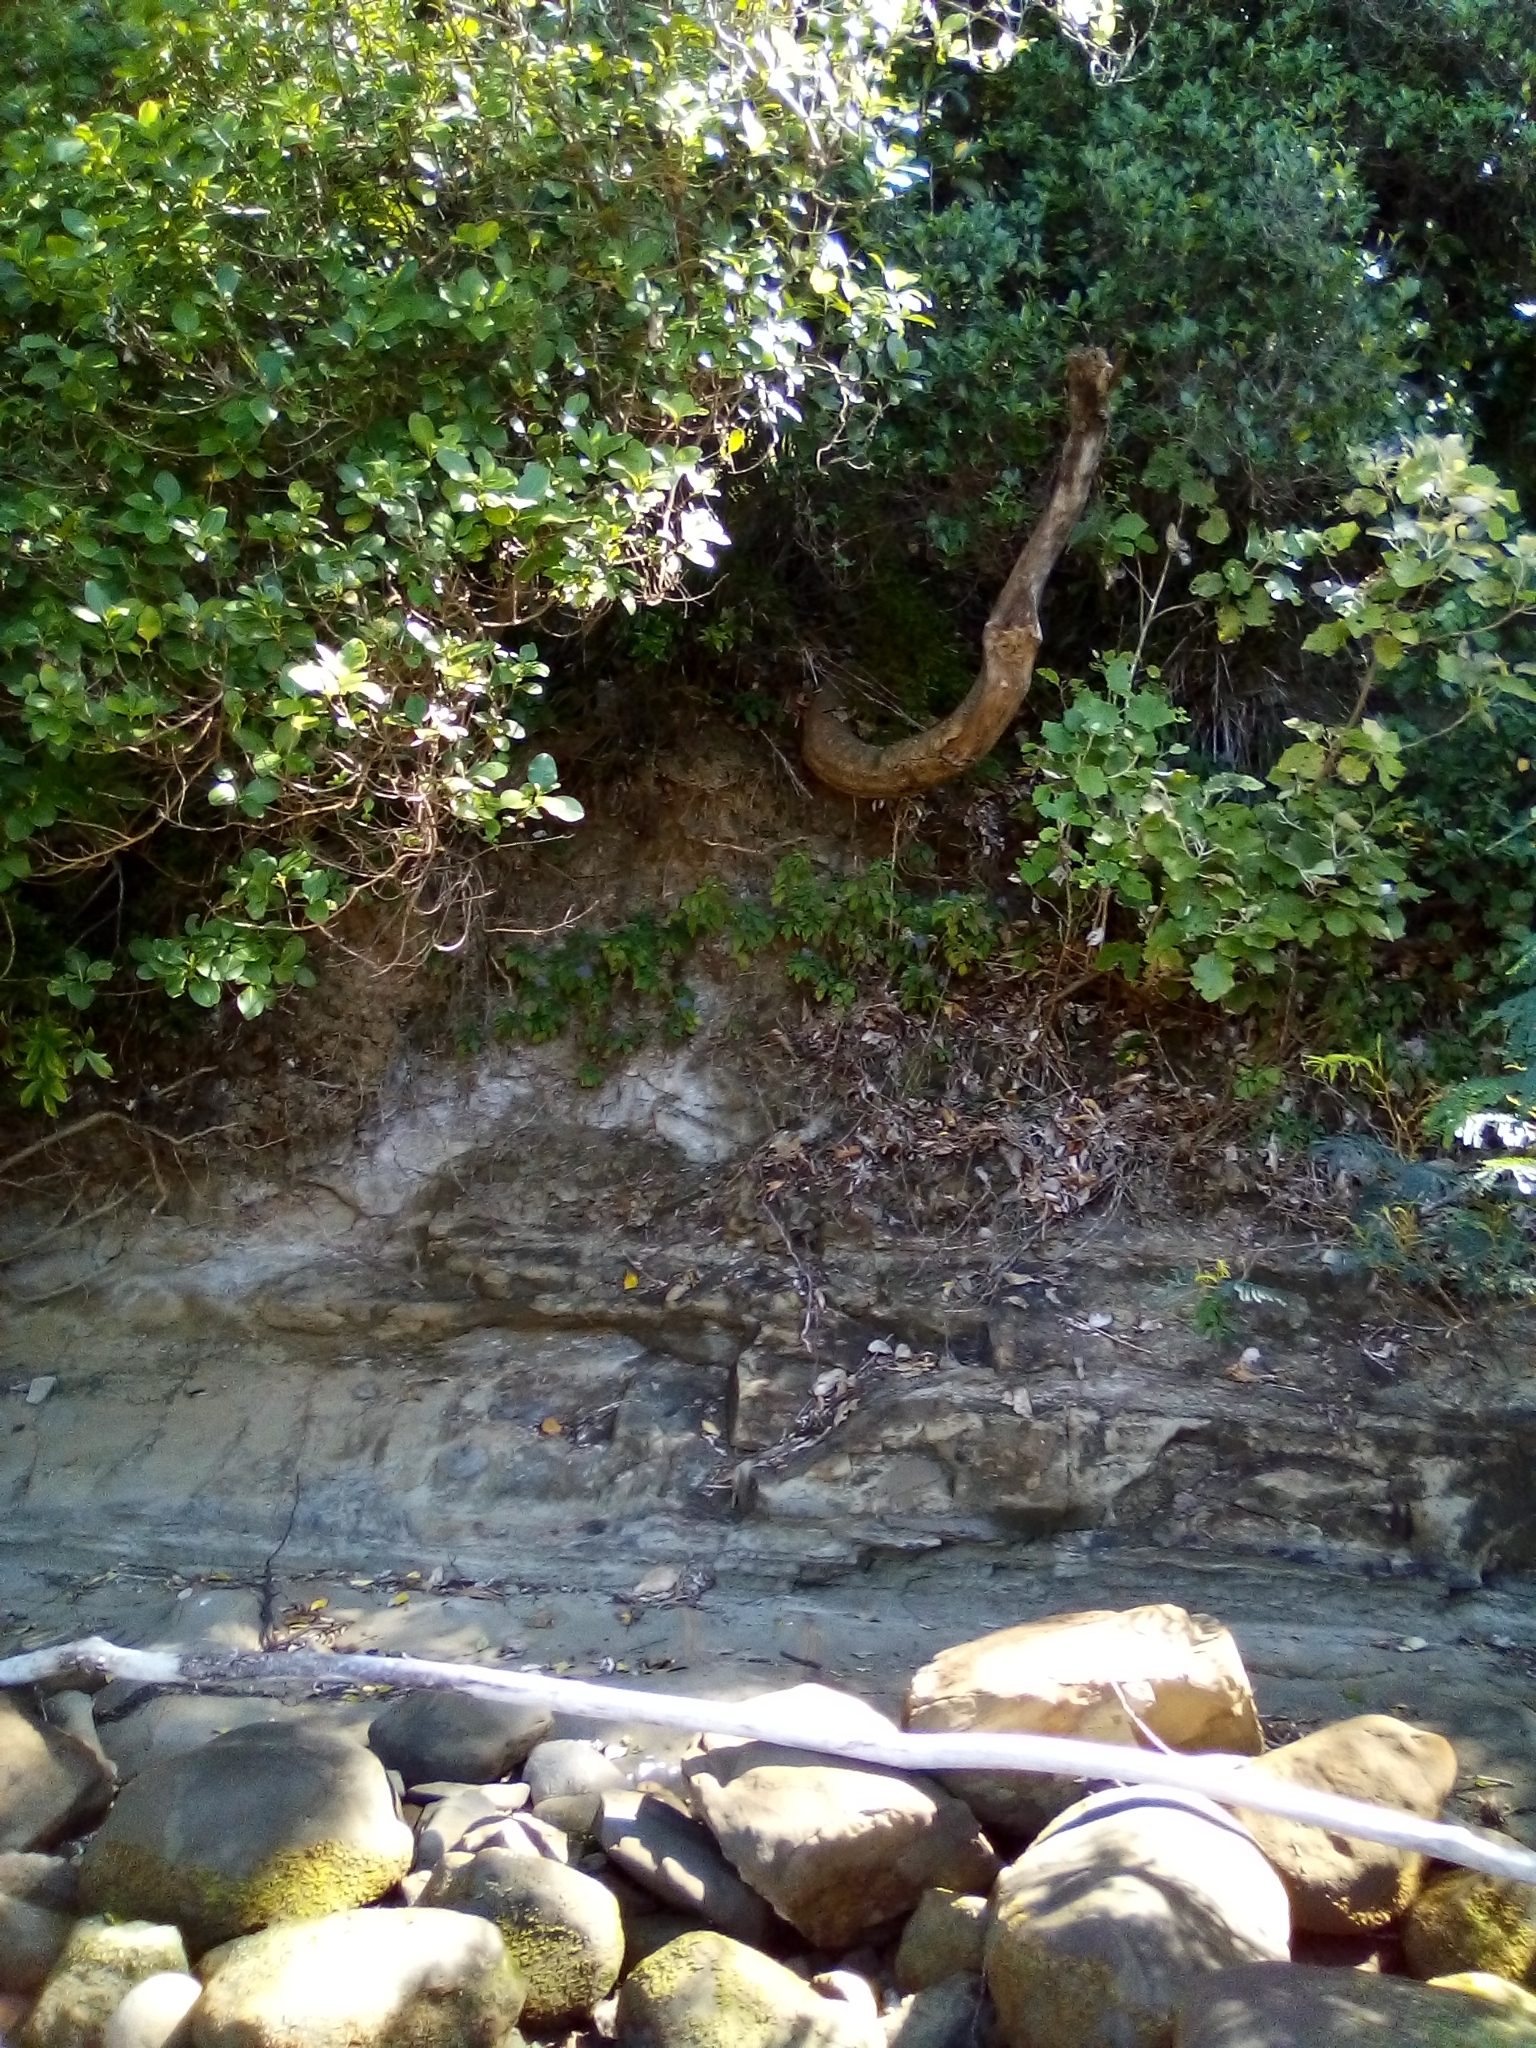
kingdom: Plantae
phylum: Tracheophyta
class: Magnoliopsida
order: Asterales
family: Campanulaceae
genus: Trachelium
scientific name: Trachelium caeruleum
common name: Throatwort
